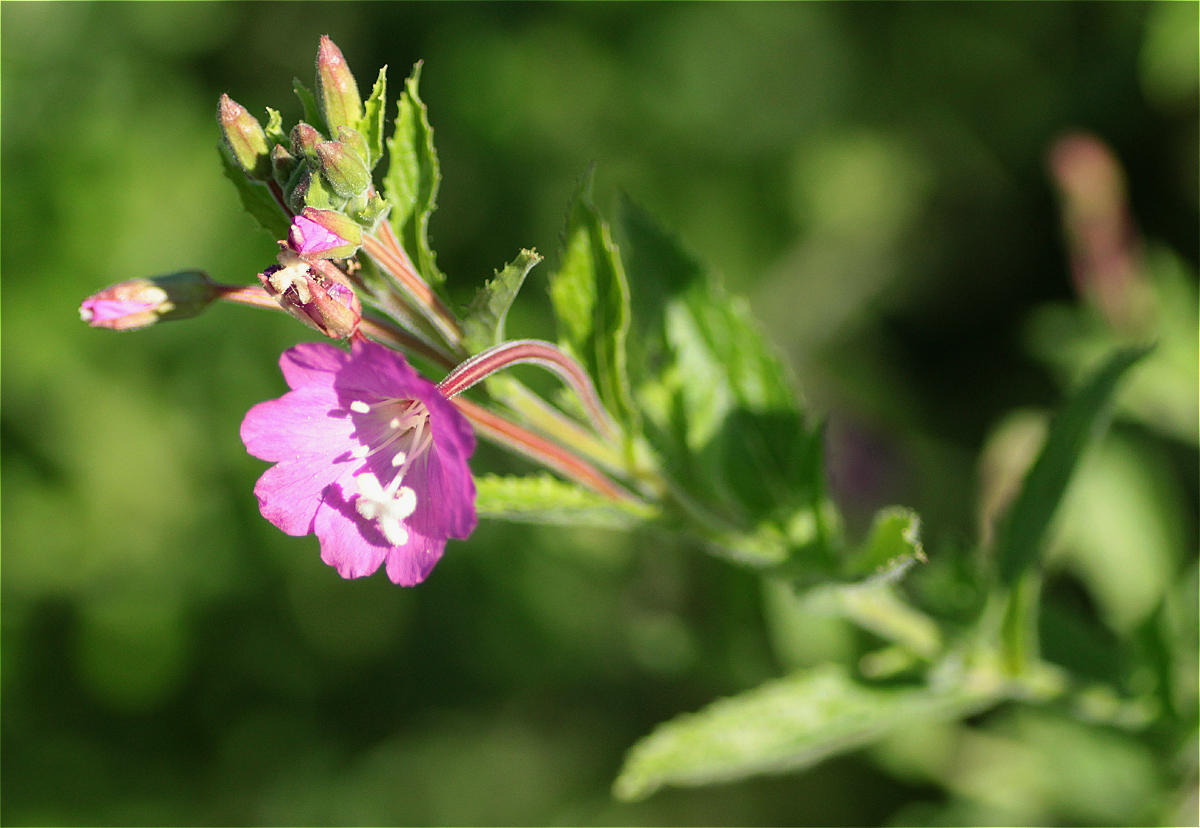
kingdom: Plantae
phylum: Tracheophyta
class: Magnoliopsida
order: Myrtales
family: Onagraceae
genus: Epilobium
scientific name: Epilobium hirsutum
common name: Great willowherb
